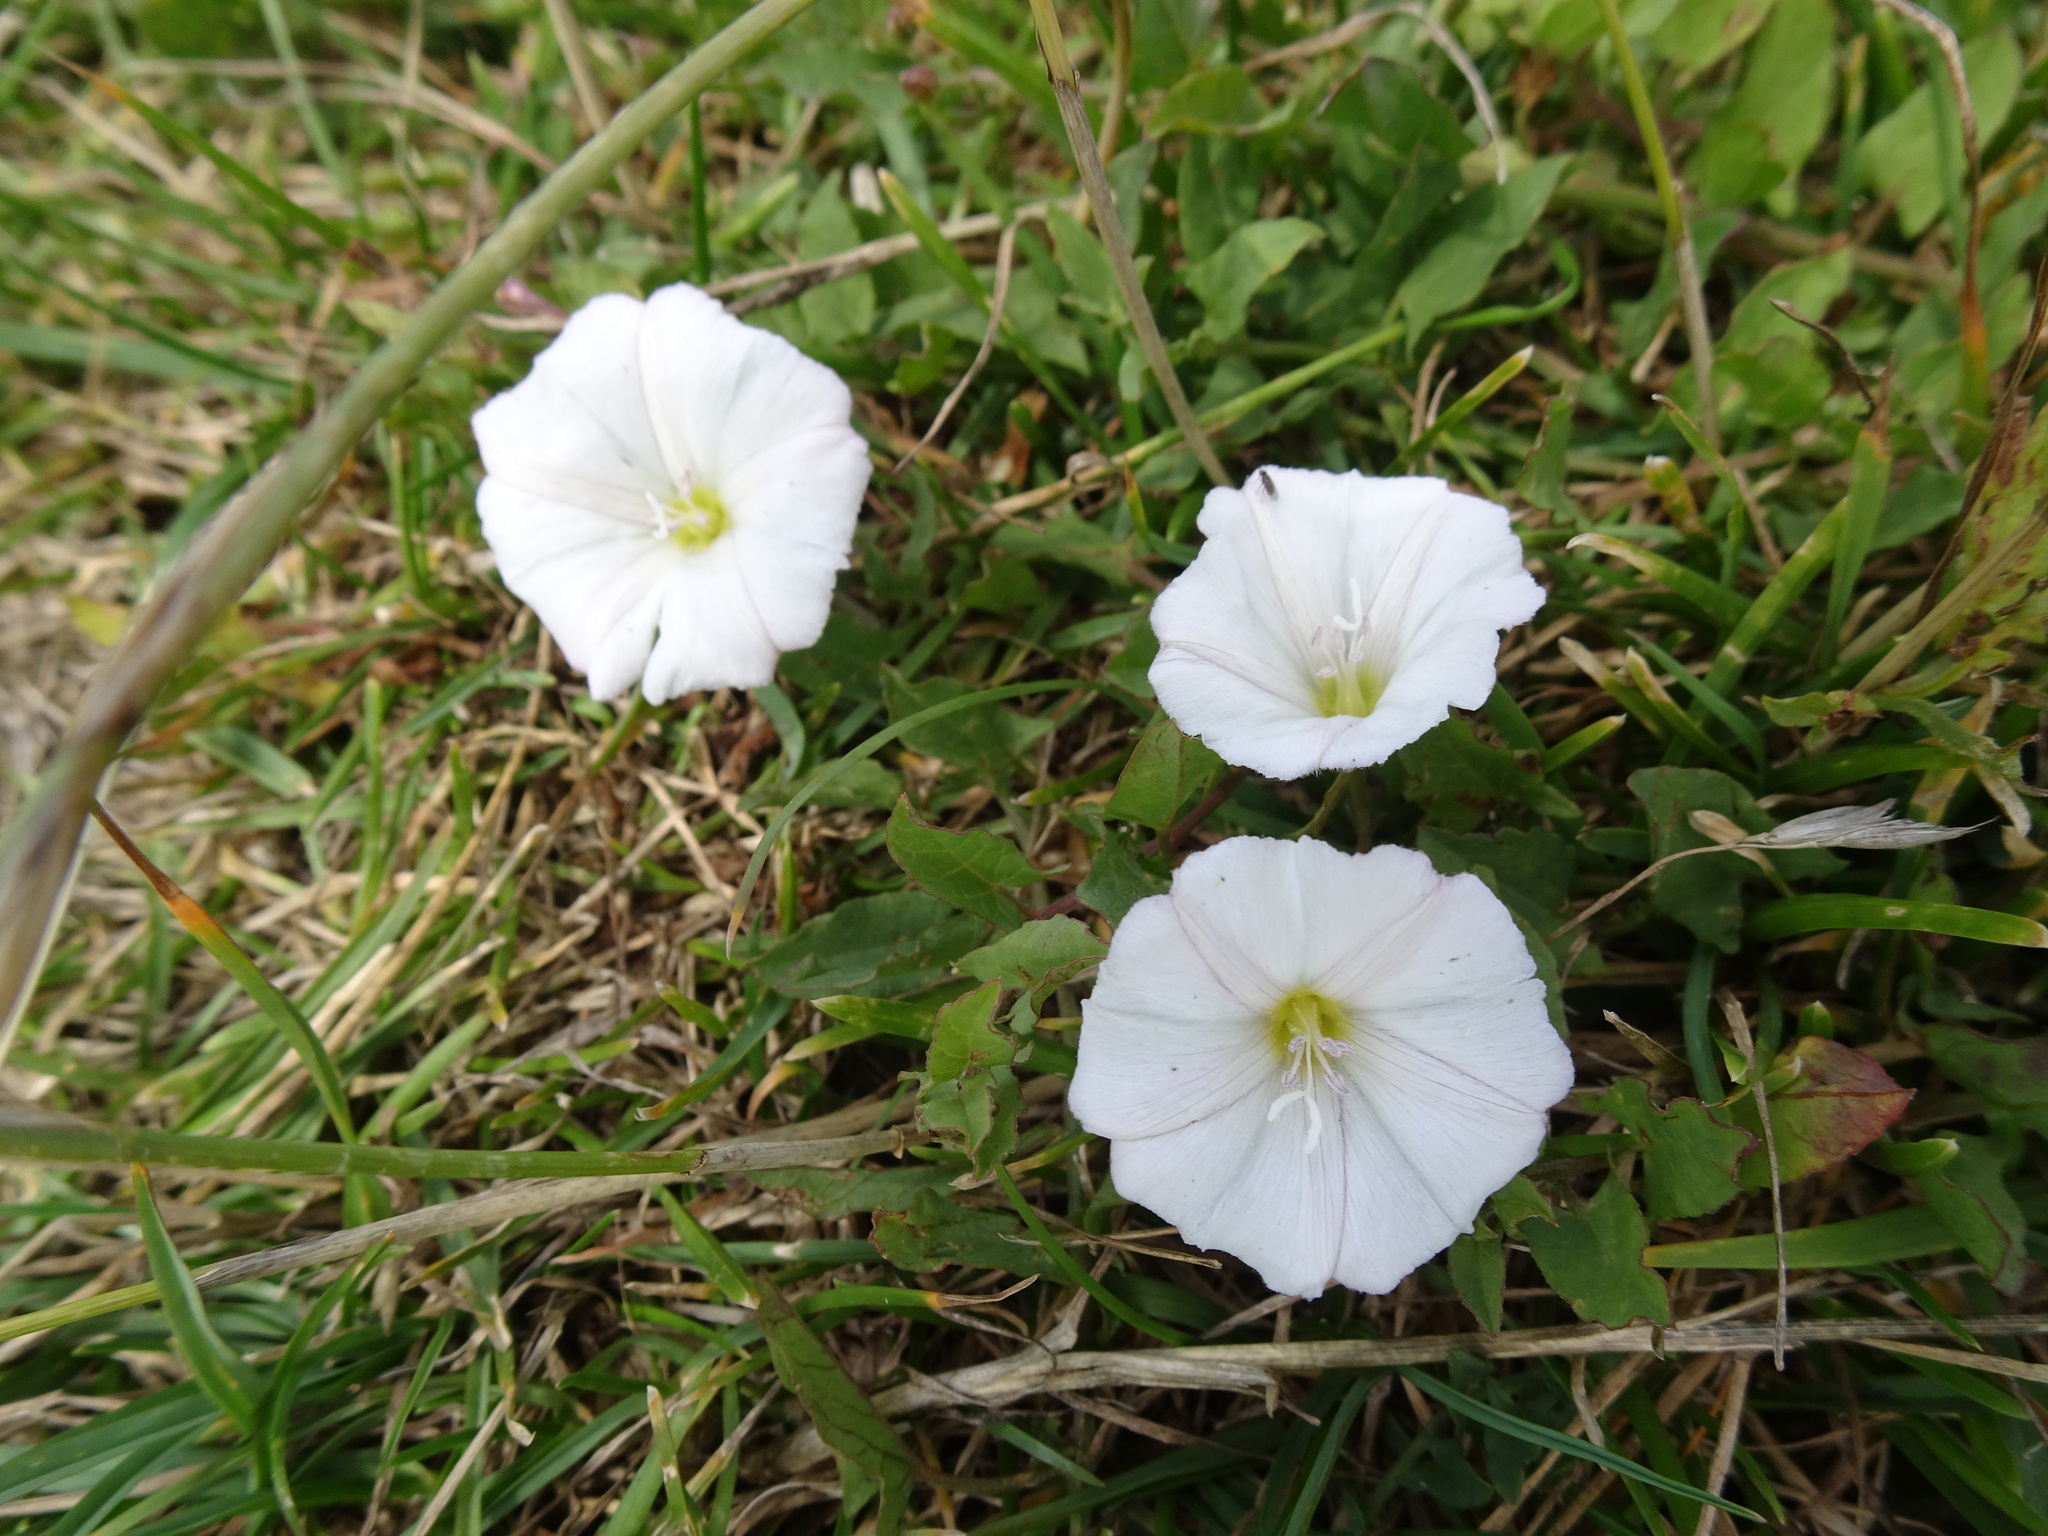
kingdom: Plantae
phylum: Tracheophyta
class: Magnoliopsida
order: Solanales
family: Convolvulaceae
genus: Convolvulus
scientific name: Convolvulus arvensis
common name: Field bindweed
